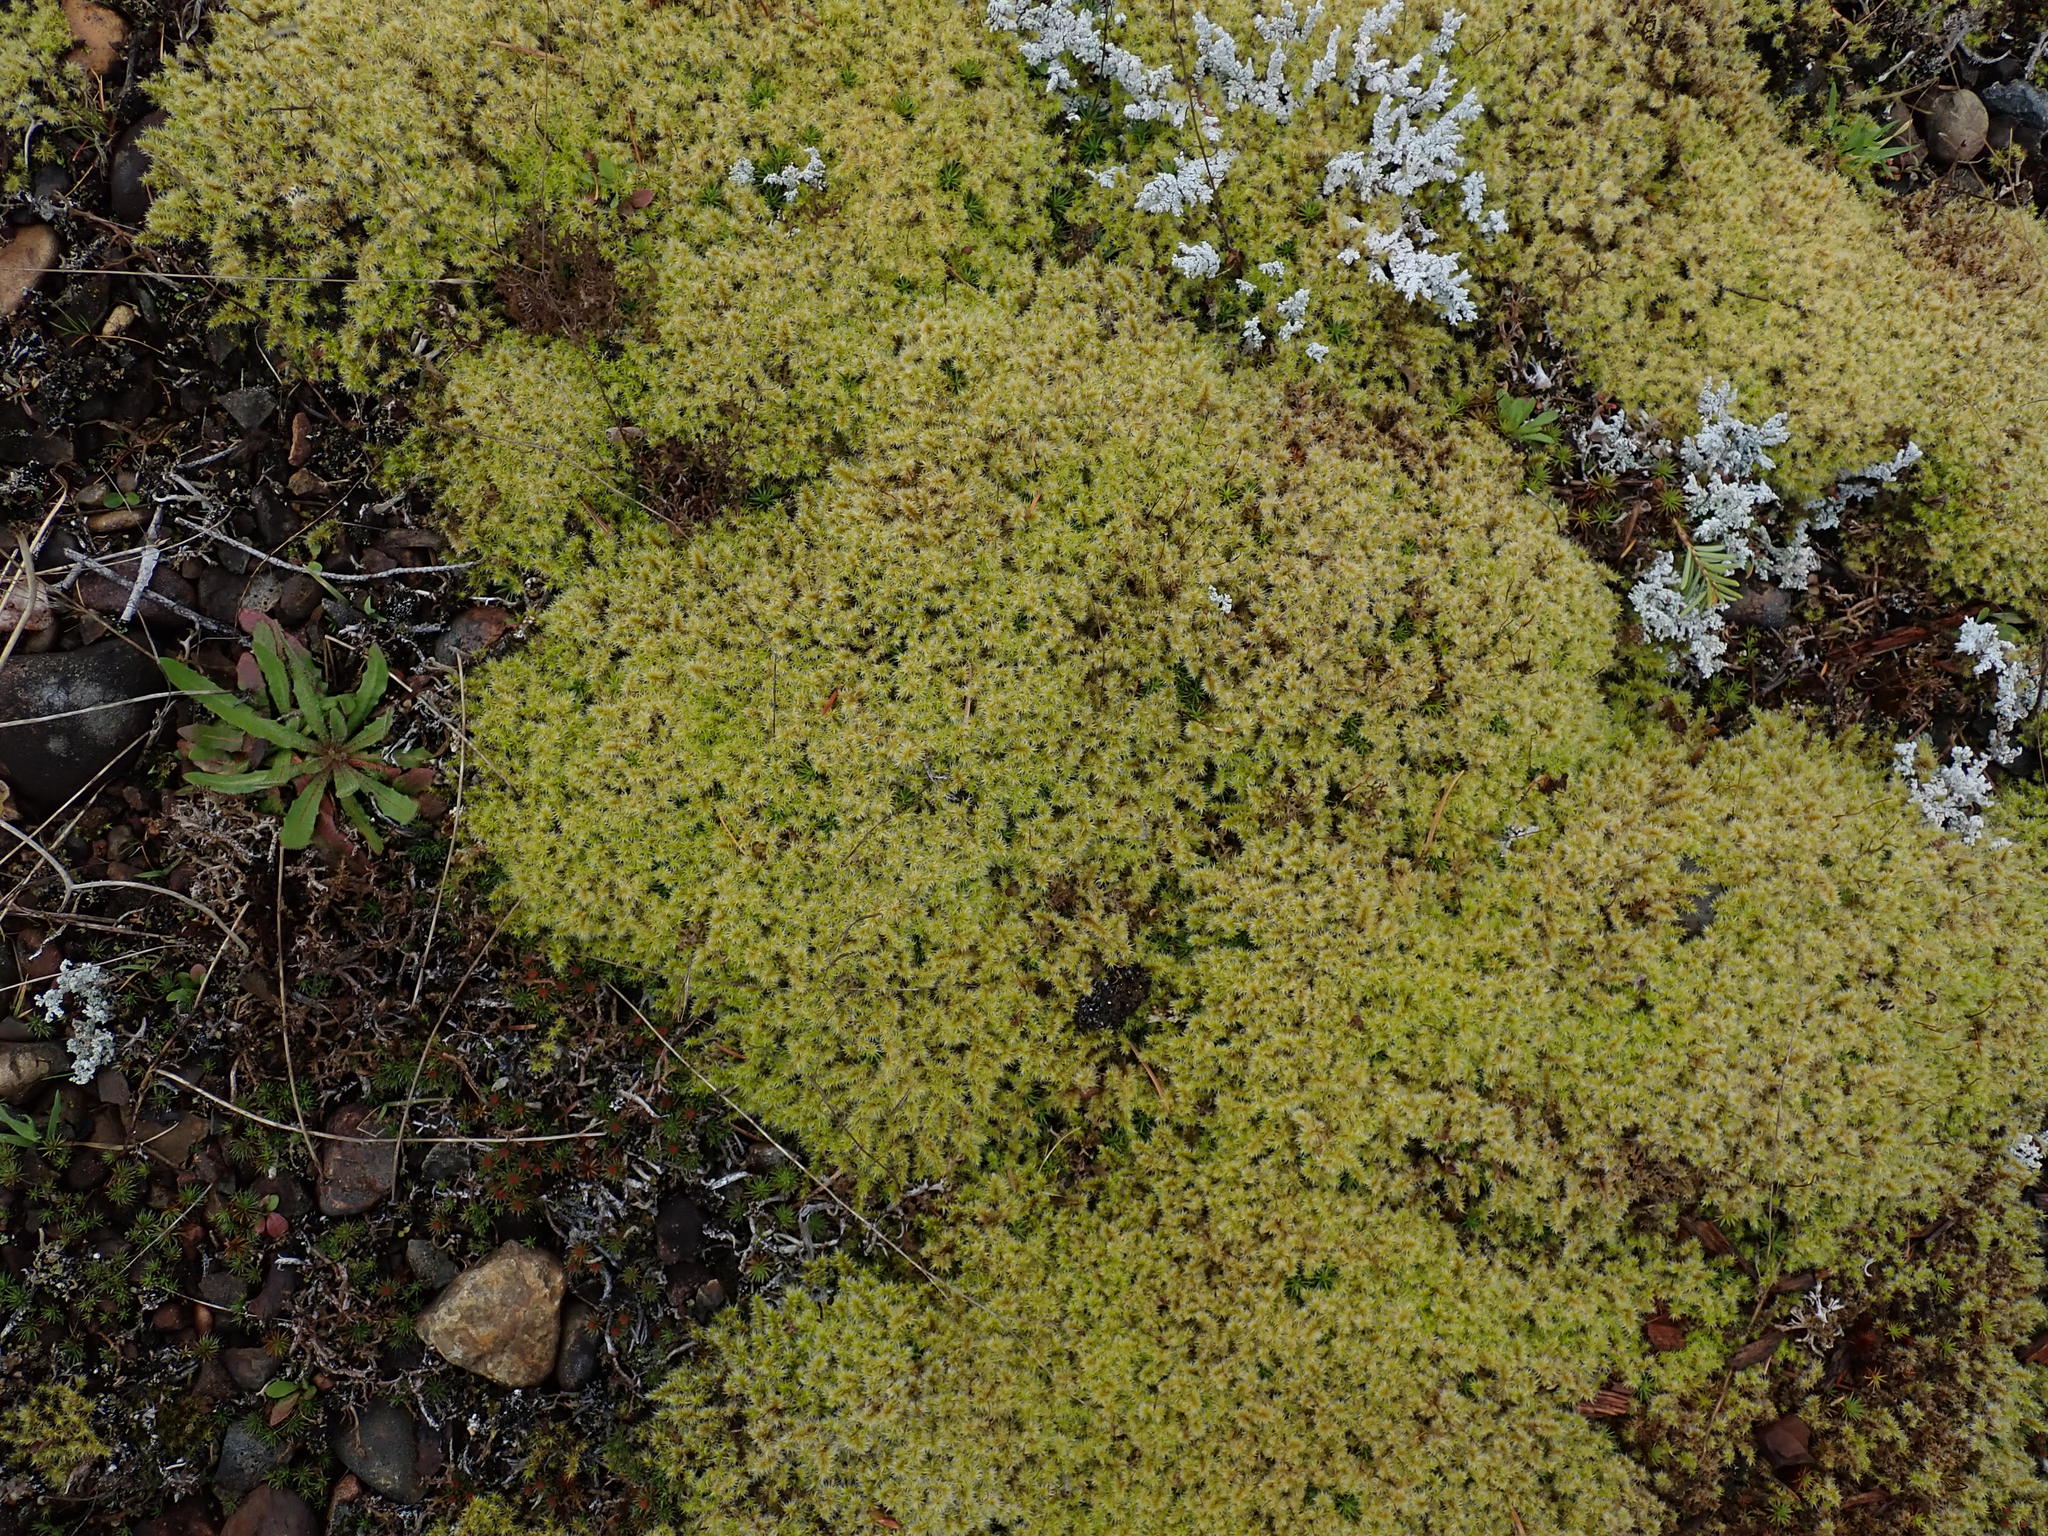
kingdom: Plantae
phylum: Bryophyta
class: Bryopsida
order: Grimmiales
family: Grimmiaceae
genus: Niphotrichum
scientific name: Niphotrichum canescens
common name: Hoary fringe-moss
